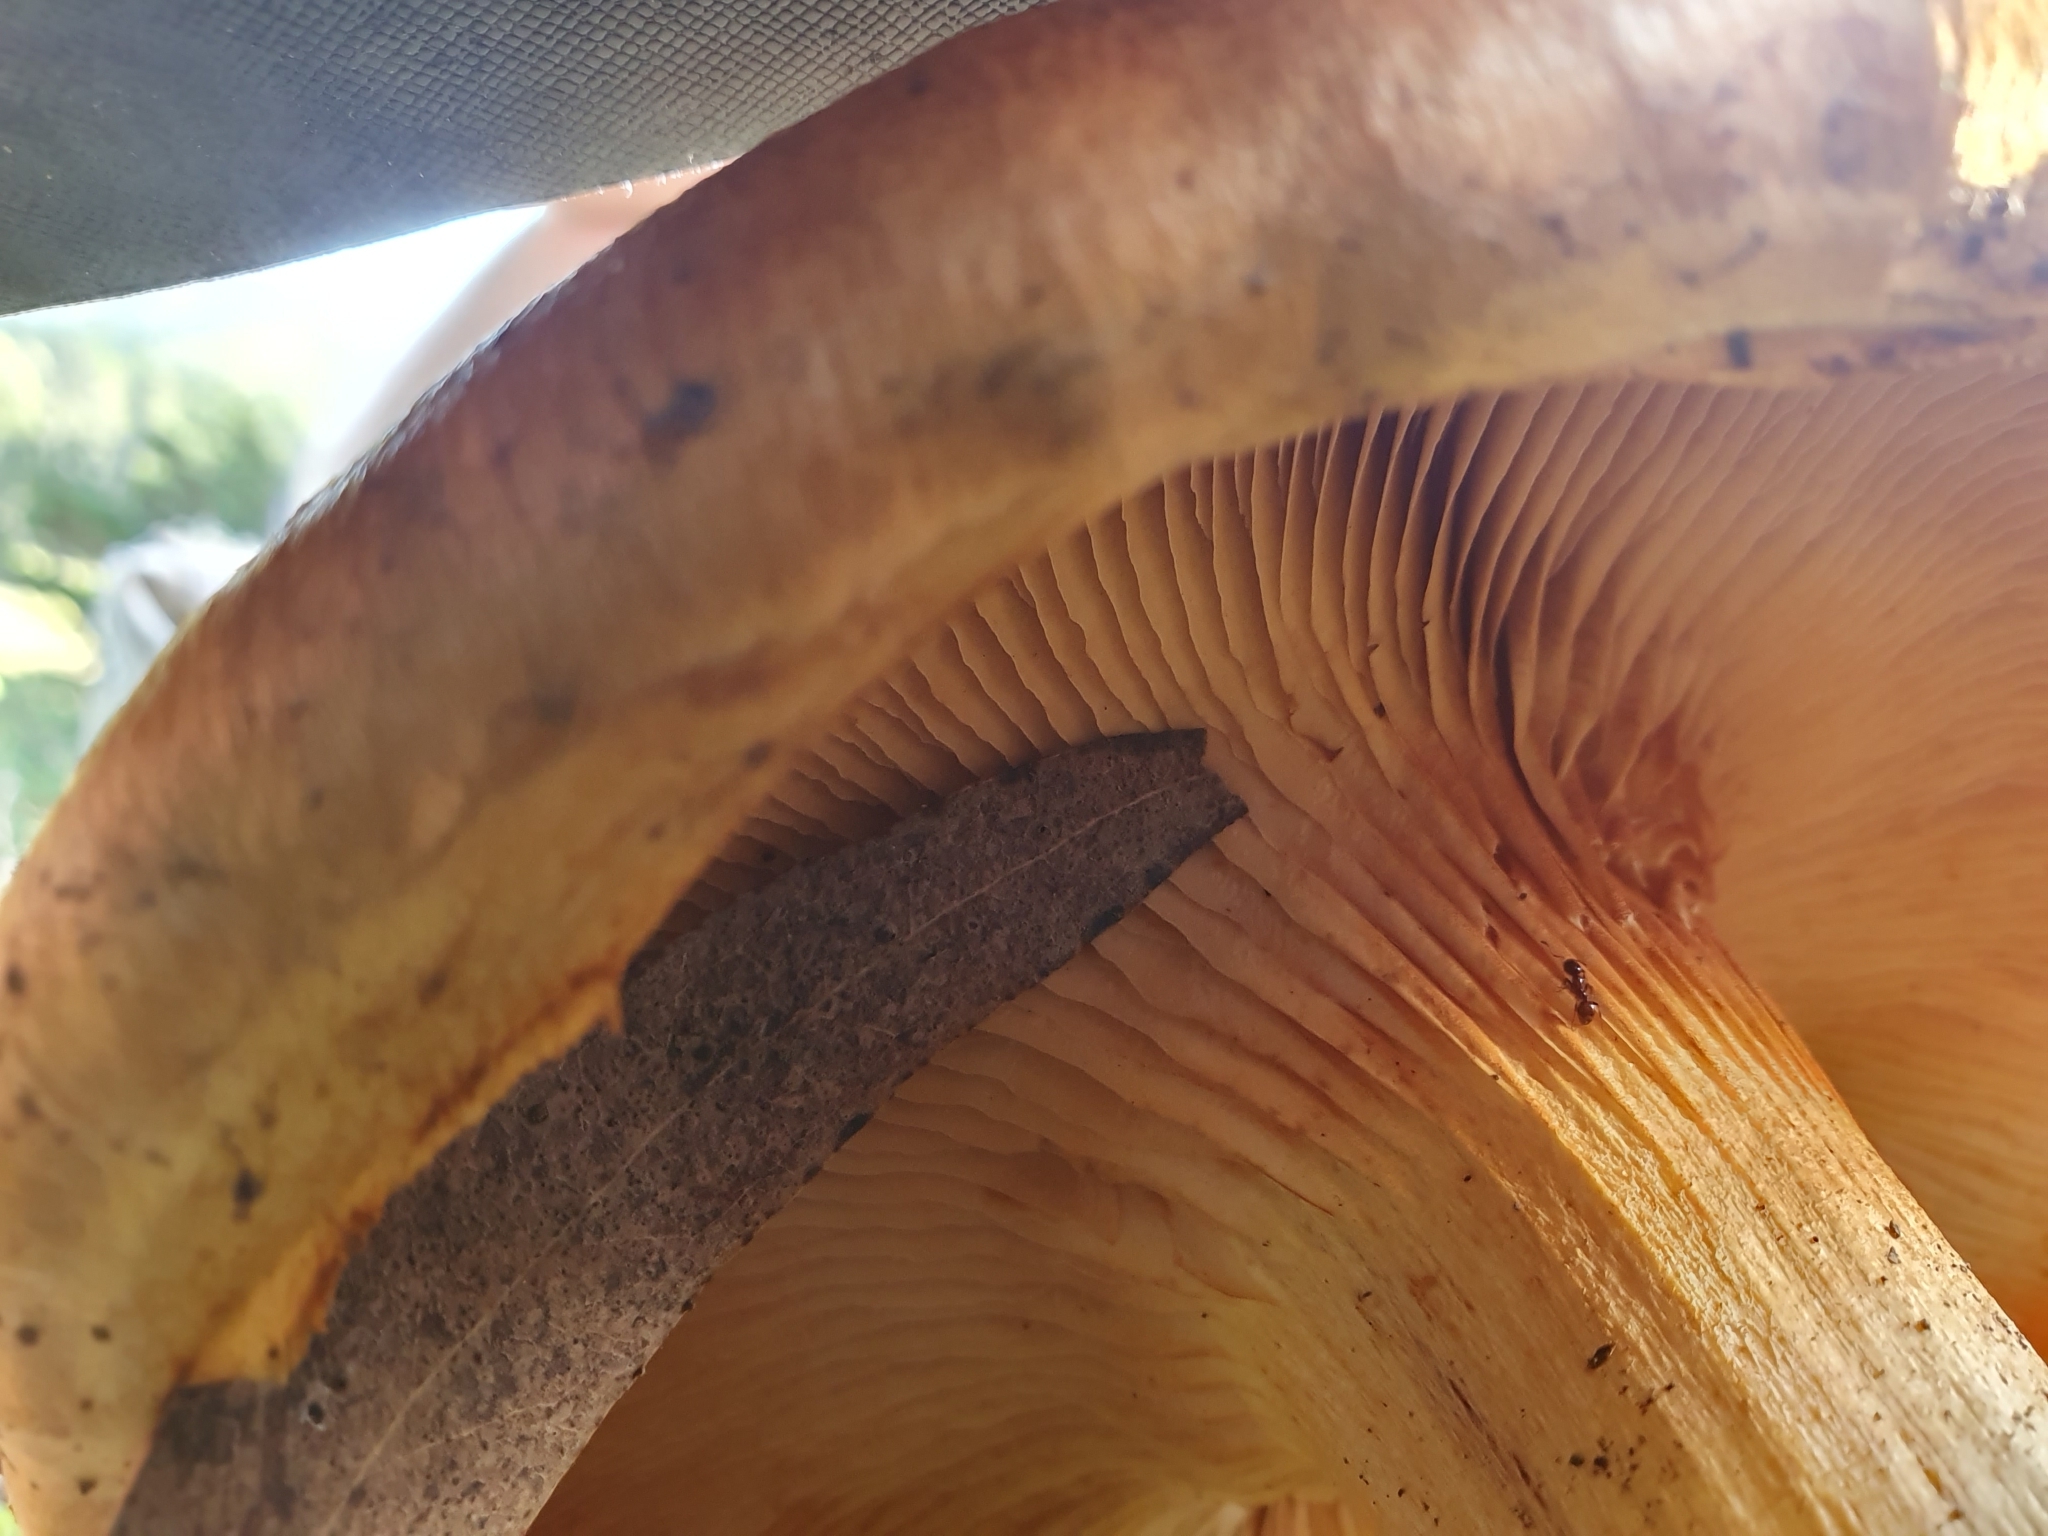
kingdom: Fungi
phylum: Basidiomycota
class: Agaricomycetes
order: Agaricales
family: Hymenogastraceae
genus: Gymnopilus
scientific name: Gymnopilus junonius
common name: Spectacular rustgill
